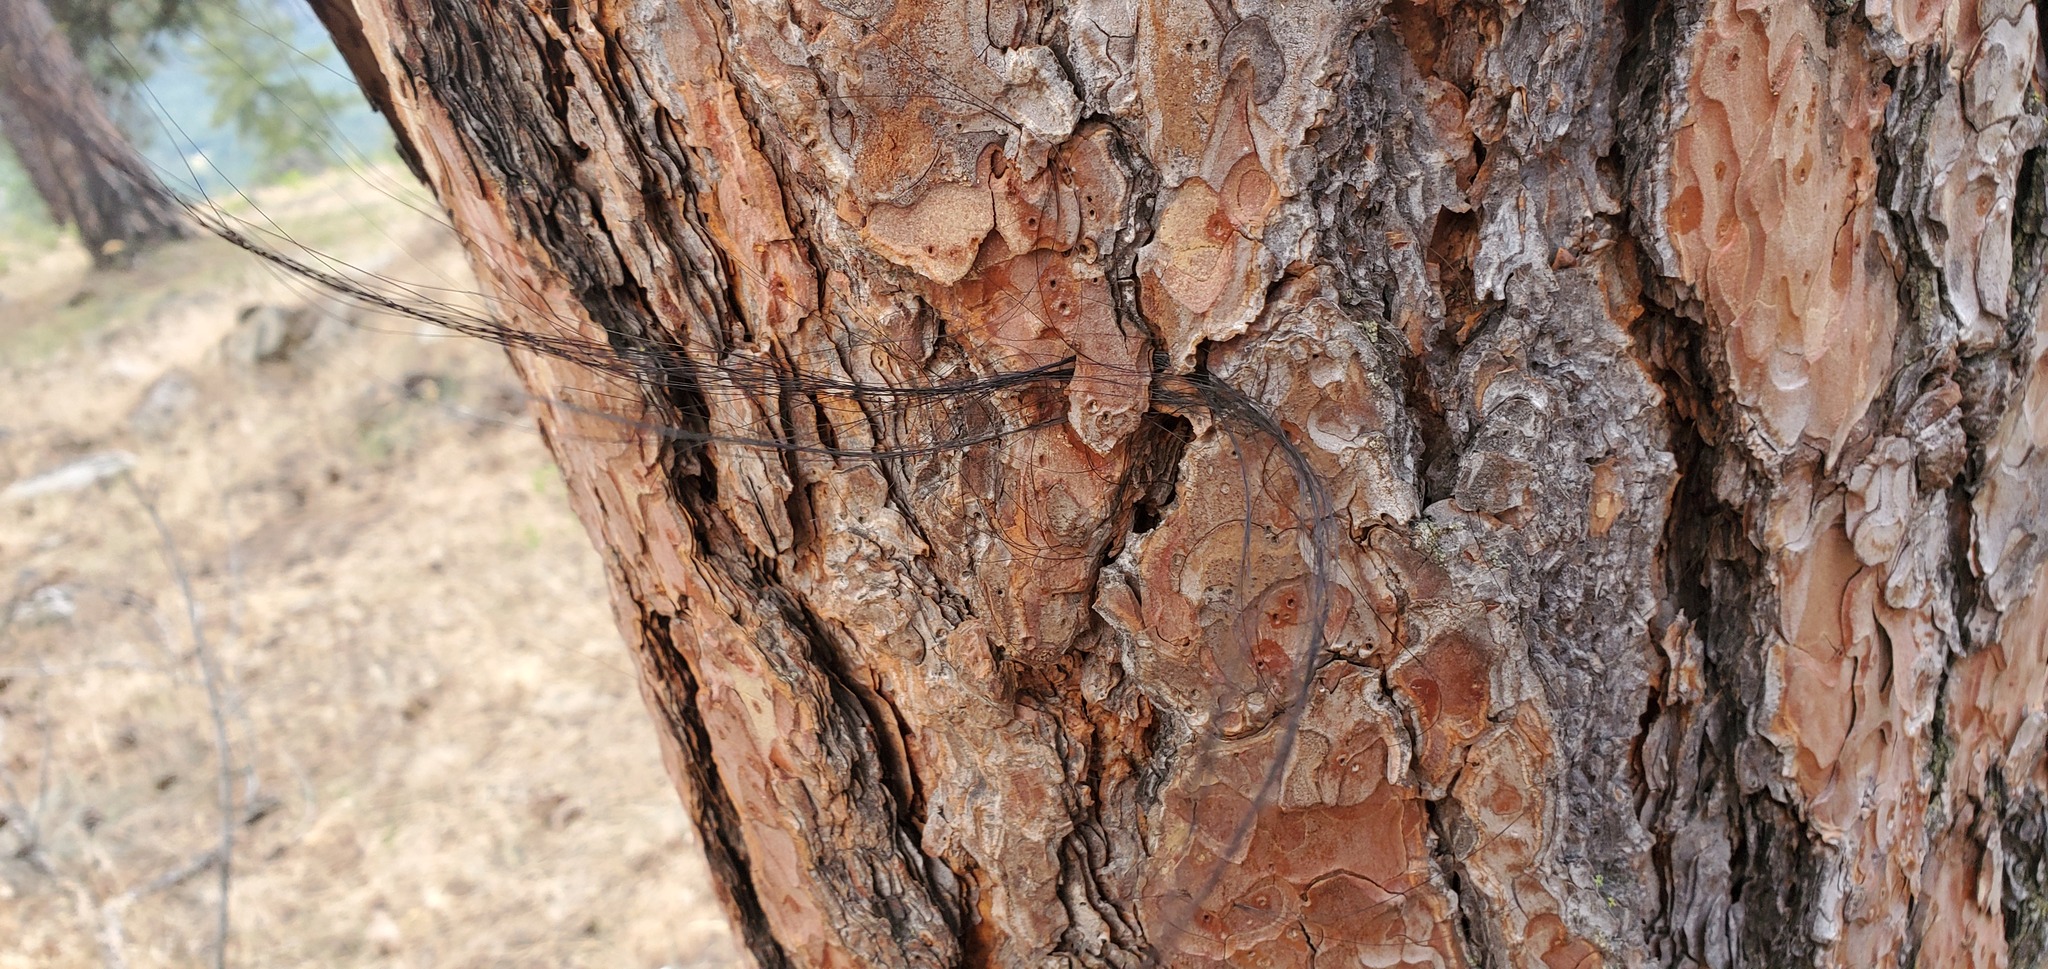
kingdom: Animalia
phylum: Chordata
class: Mammalia
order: Perissodactyla
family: Equidae
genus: Equus
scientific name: Equus caballus
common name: Horse
